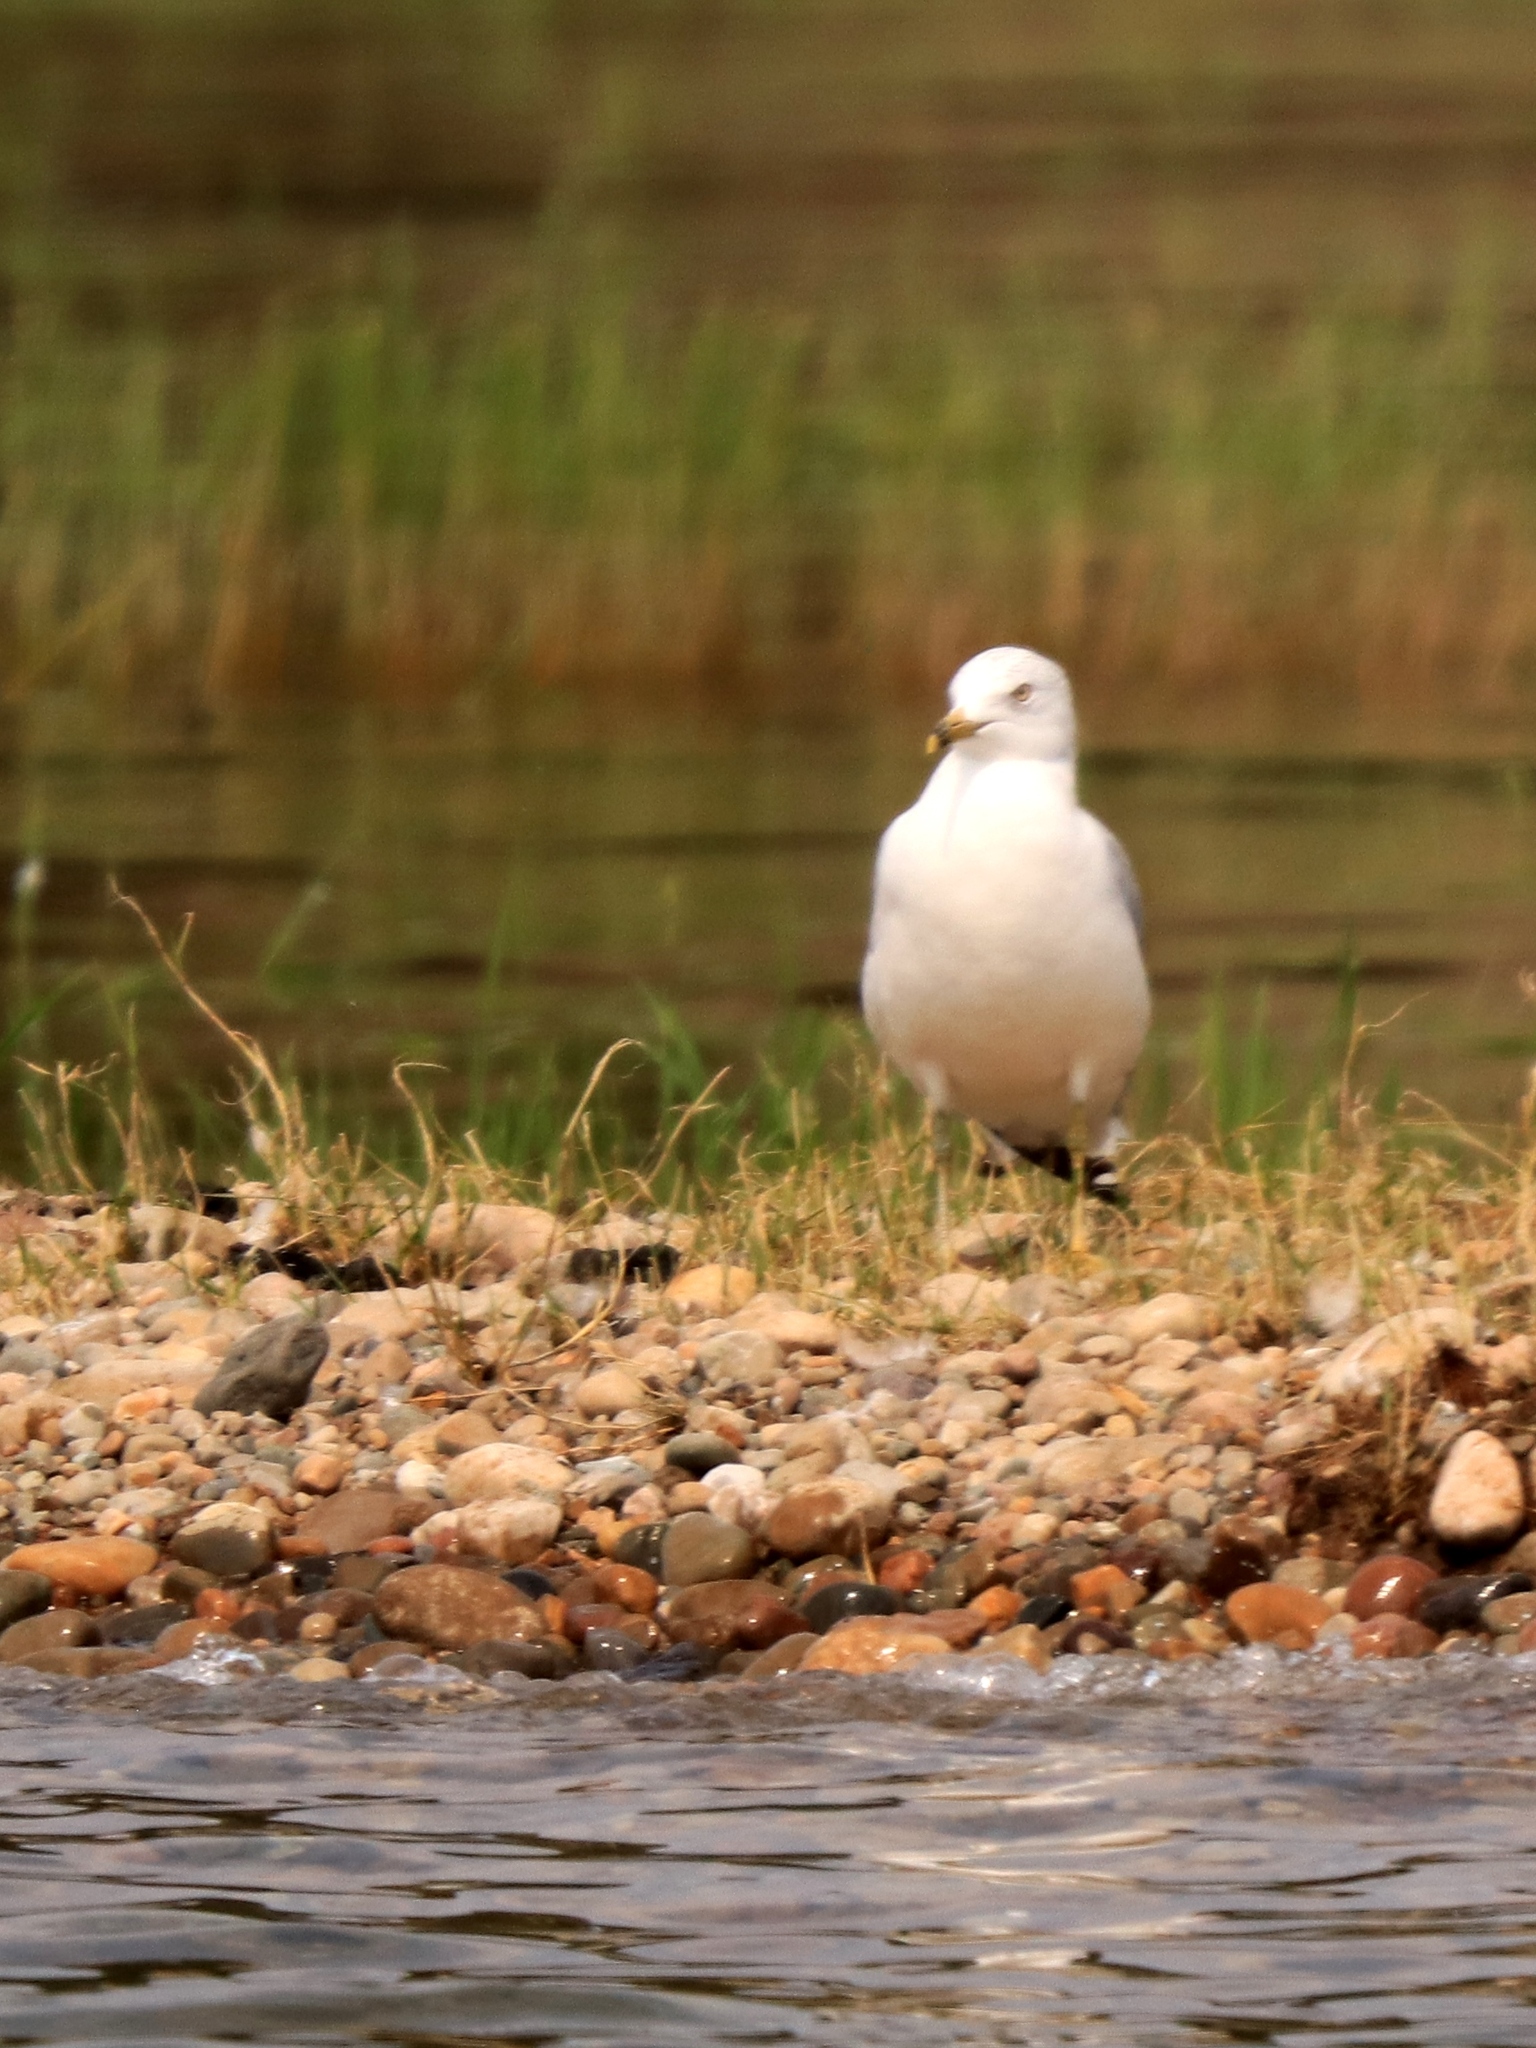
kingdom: Animalia
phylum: Chordata
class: Aves
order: Charadriiformes
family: Laridae
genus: Larus
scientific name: Larus delawarensis
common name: Ring-billed gull
